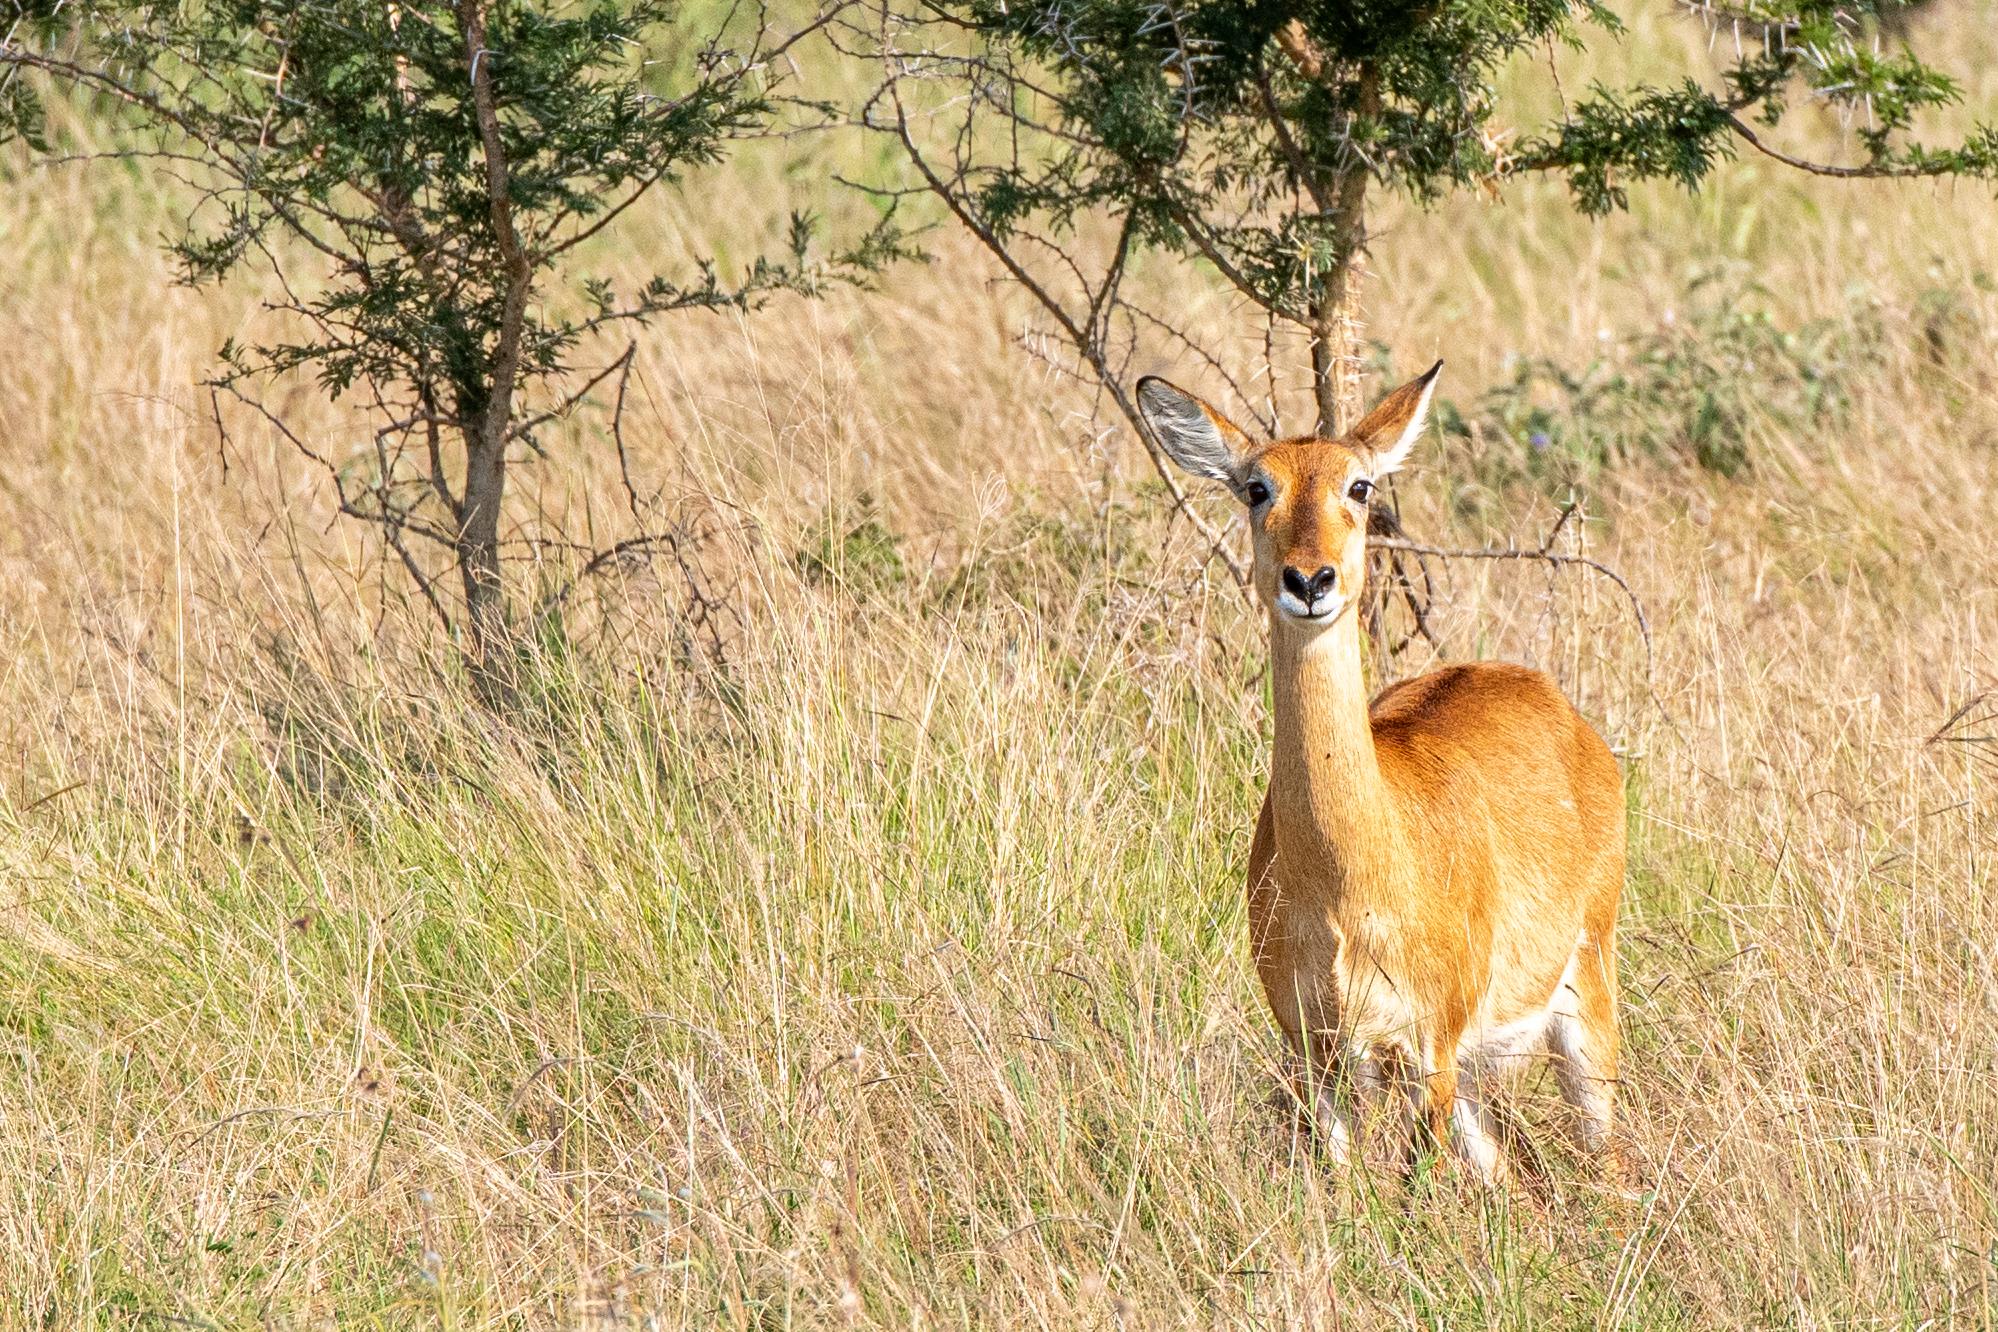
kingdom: Animalia
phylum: Chordata
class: Mammalia
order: Artiodactyla
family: Bovidae
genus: Kobus
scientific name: Kobus kob
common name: Kob
